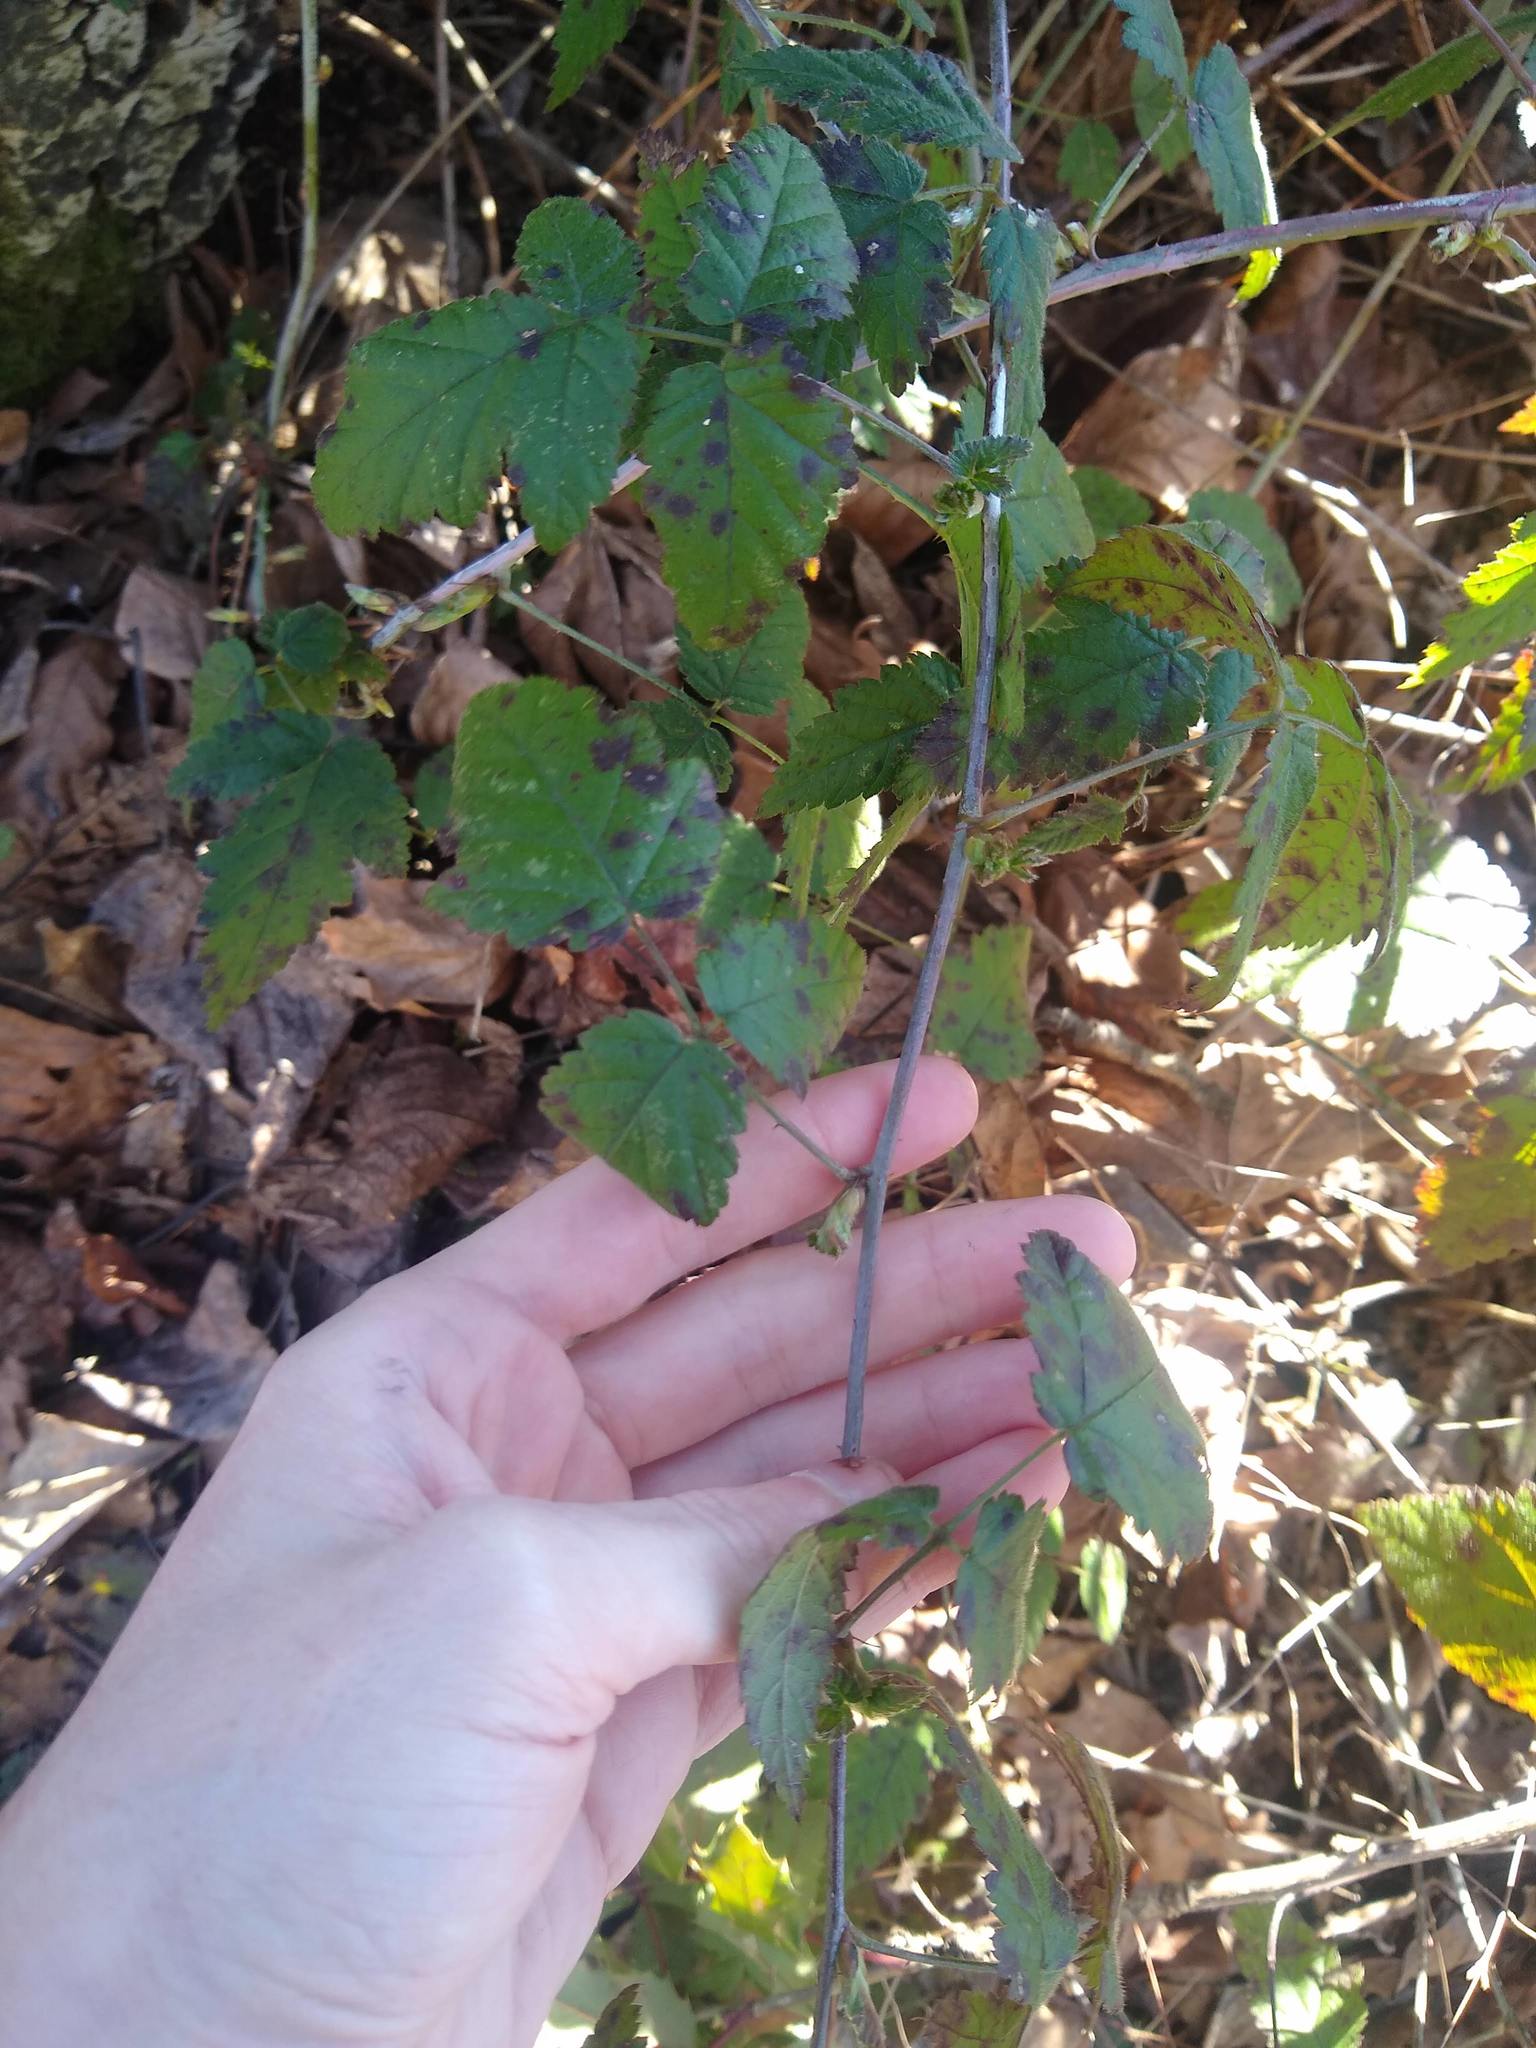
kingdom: Plantae
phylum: Tracheophyta
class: Magnoliopsida
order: Rosales
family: Rosaceae
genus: Rubus
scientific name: Rubus ursinus
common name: Pacific blackberry
